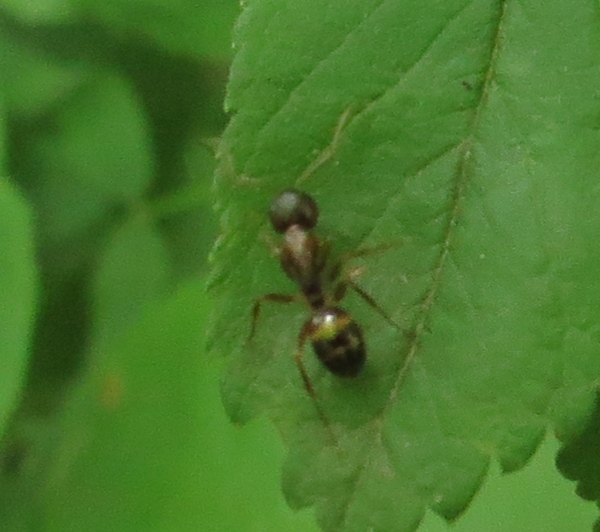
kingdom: Animalia
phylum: Arthropoda
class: Insecta
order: Hymenoptera
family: Formicidae
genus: Camponotus
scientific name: Camponotus subbarbatus
